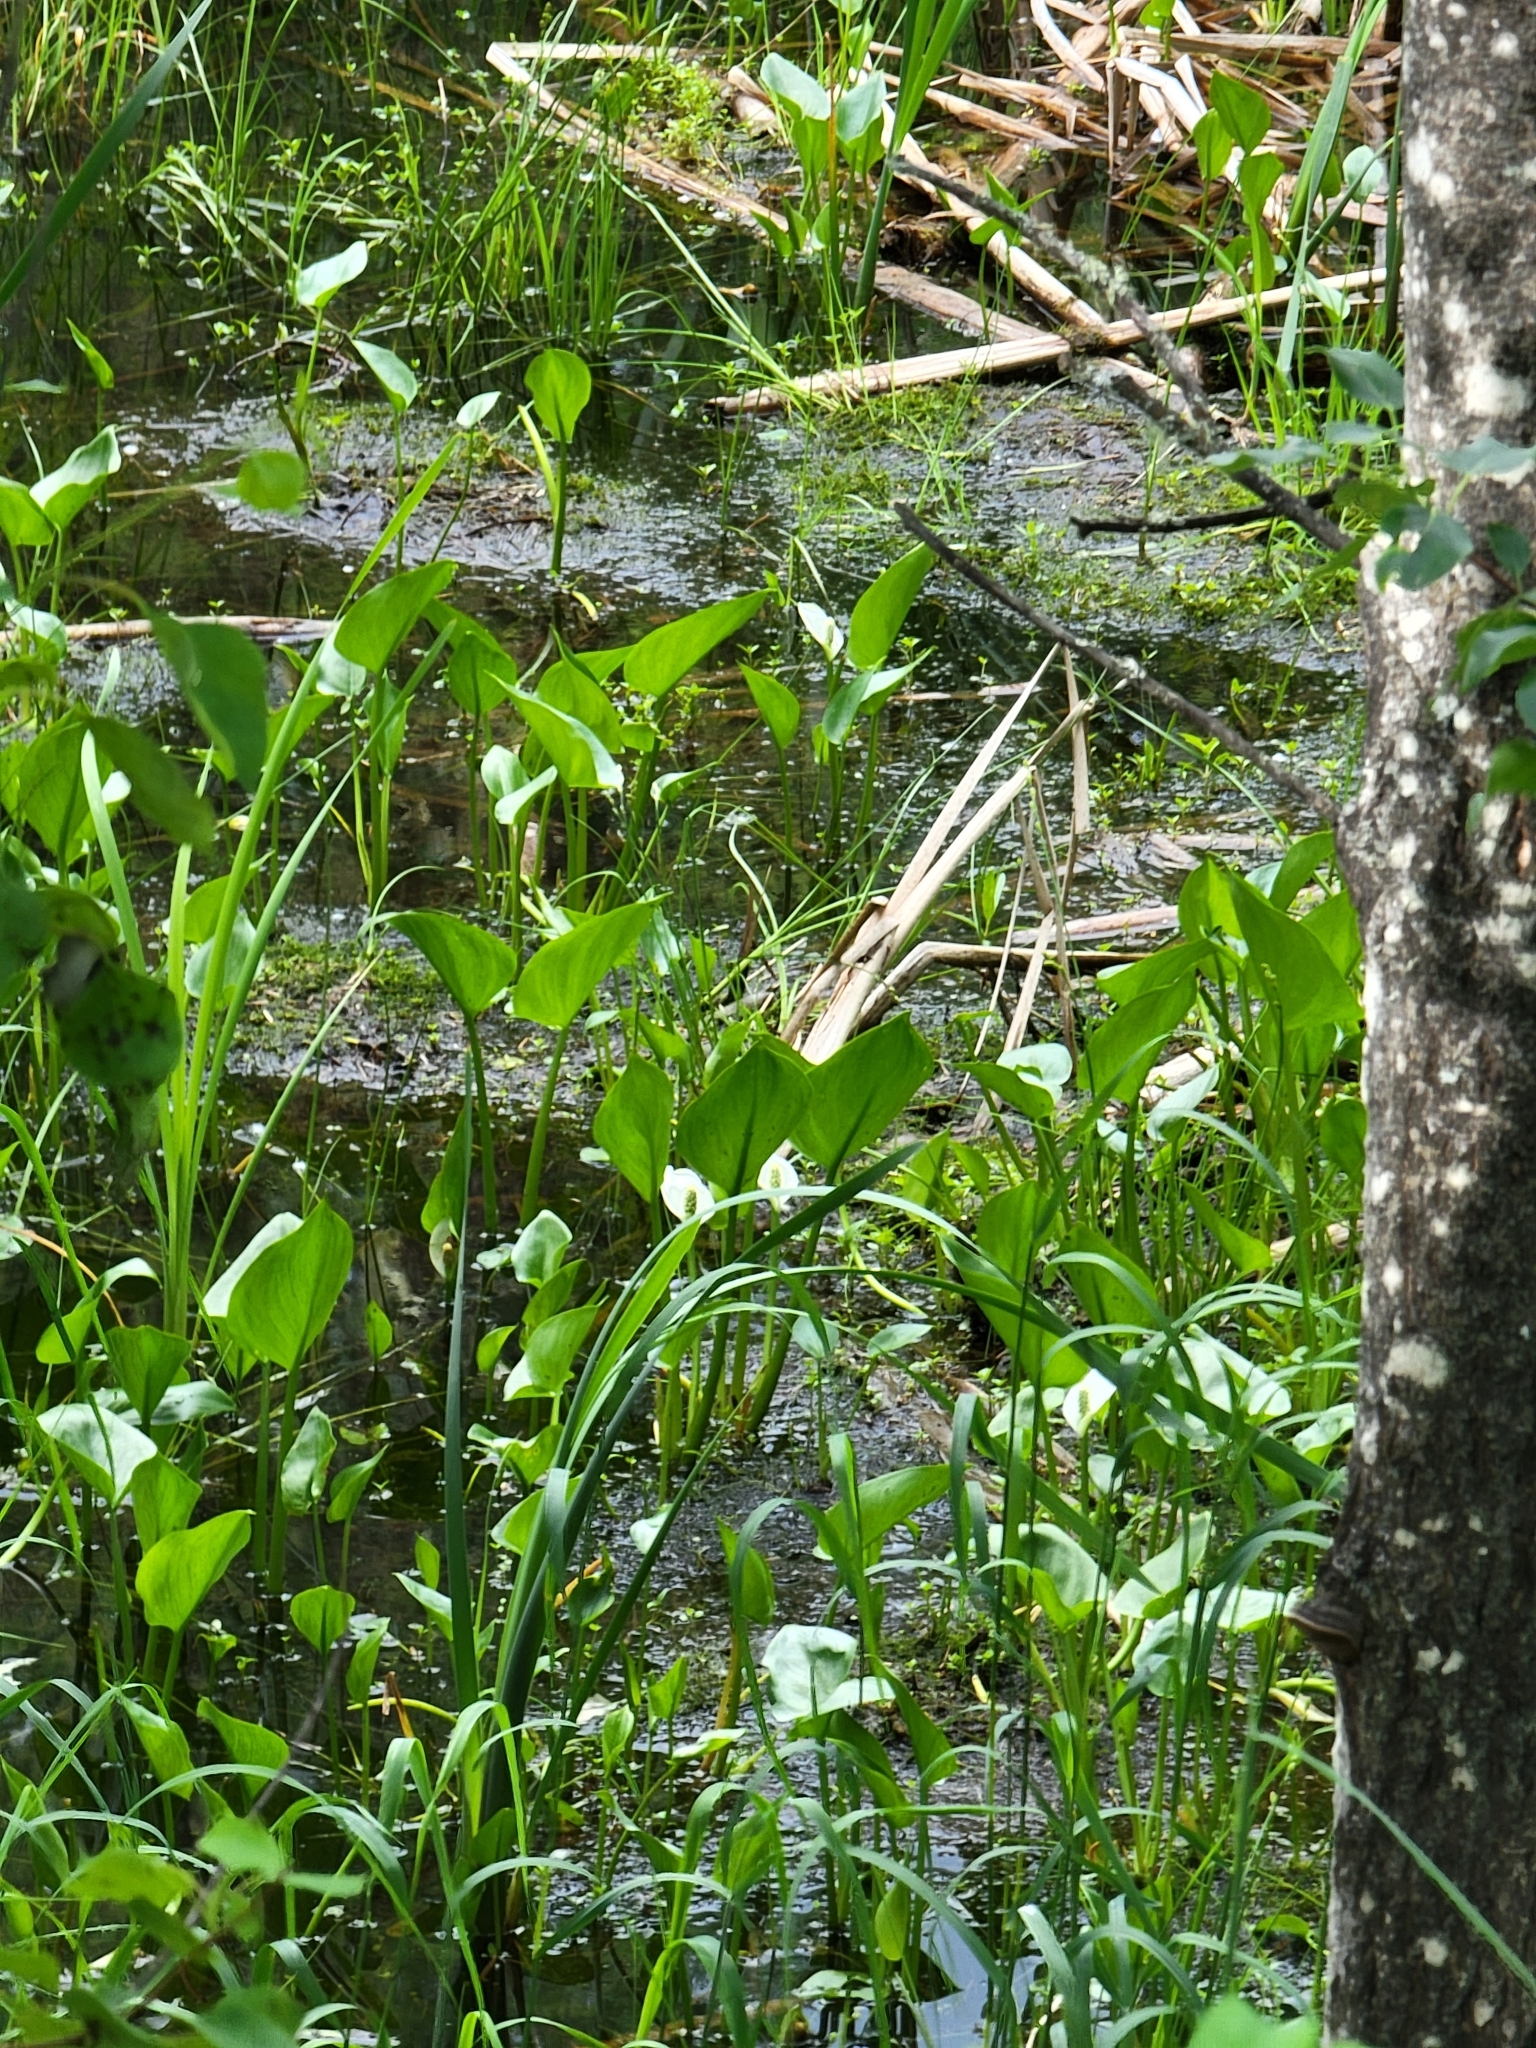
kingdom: Plantae
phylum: Tracheophyta
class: Liliopsida
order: Alismatales
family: Araceae
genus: Calla
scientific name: Calla palustris
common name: Bog arum
